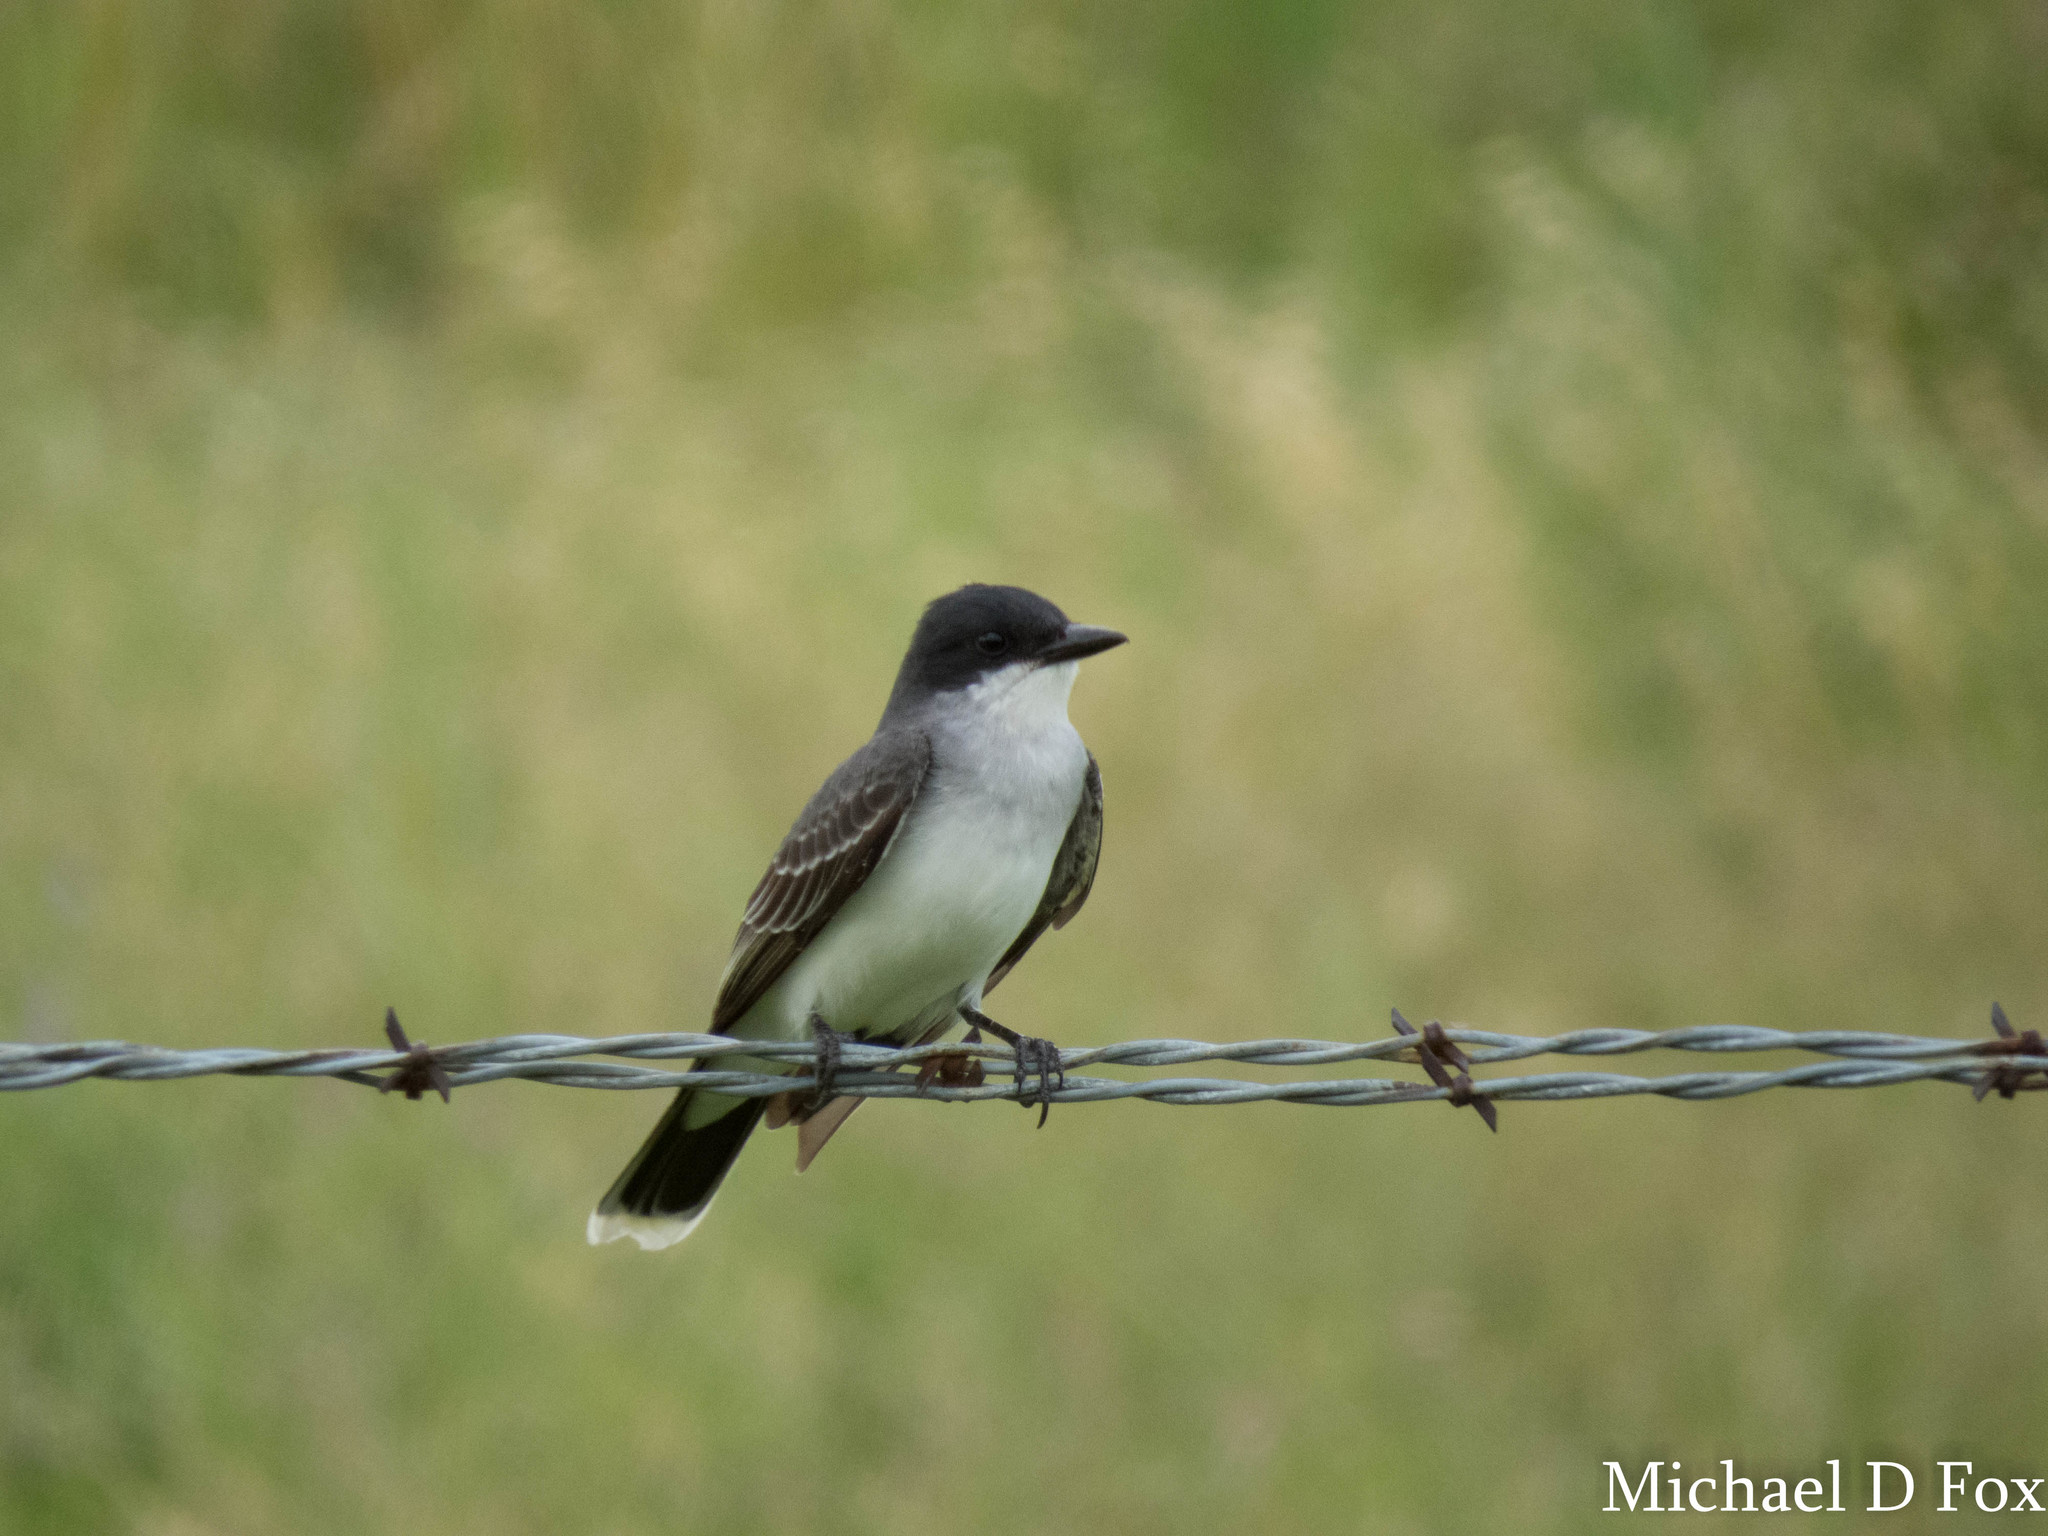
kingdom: Animalia
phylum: Chordata
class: Aves
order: Passeriformes
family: Tyrannidae
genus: Tyrannus
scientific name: Tyrannus tyrannus
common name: Eastern kingbird
